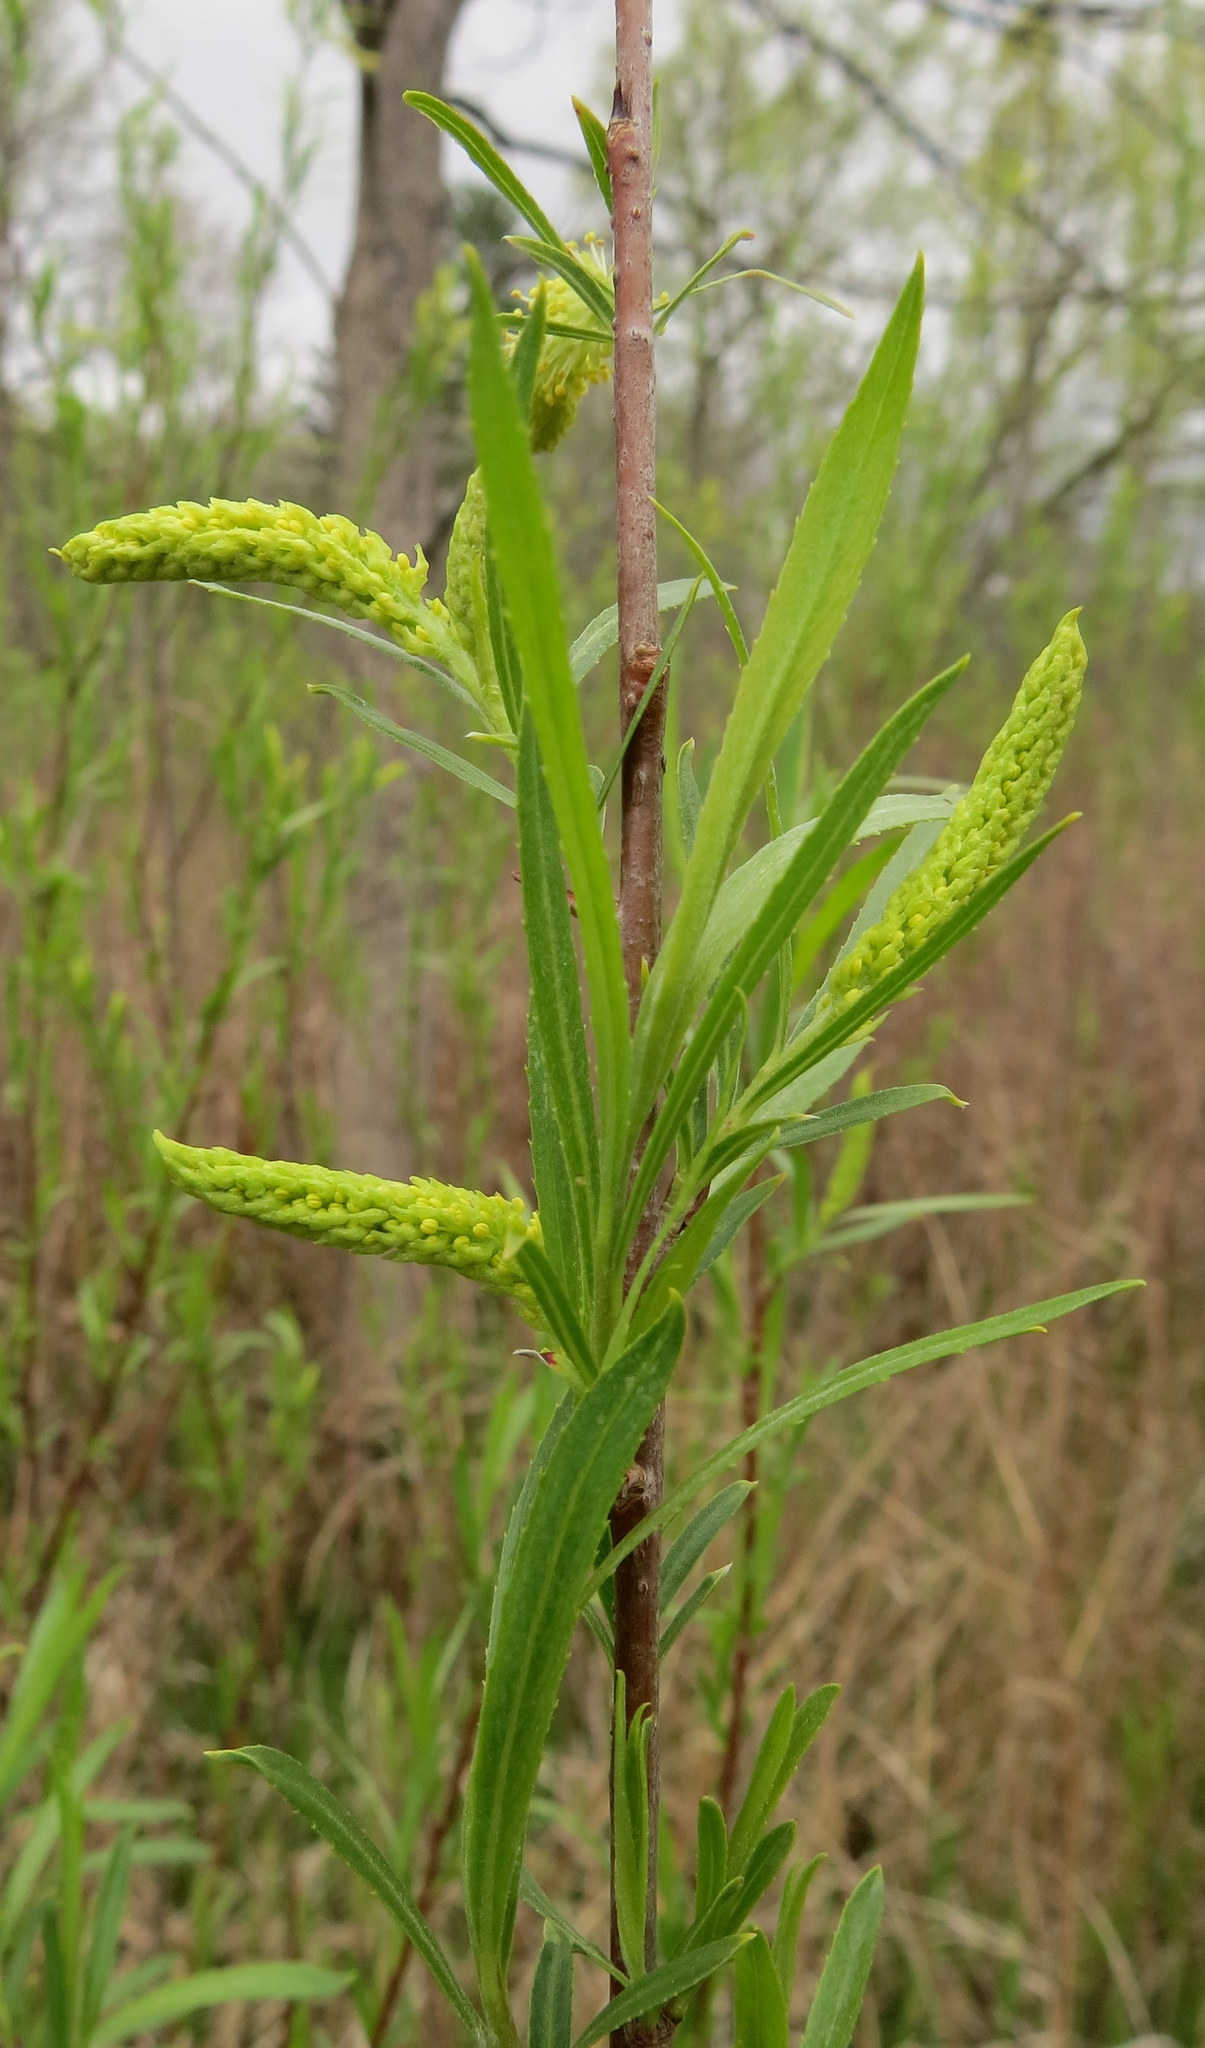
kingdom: Plantae
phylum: Tracheophyta
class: Magnoliopsida
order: Malpighiales
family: Salicaceae
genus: Salix
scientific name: Salix interior
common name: Sandbar willow
